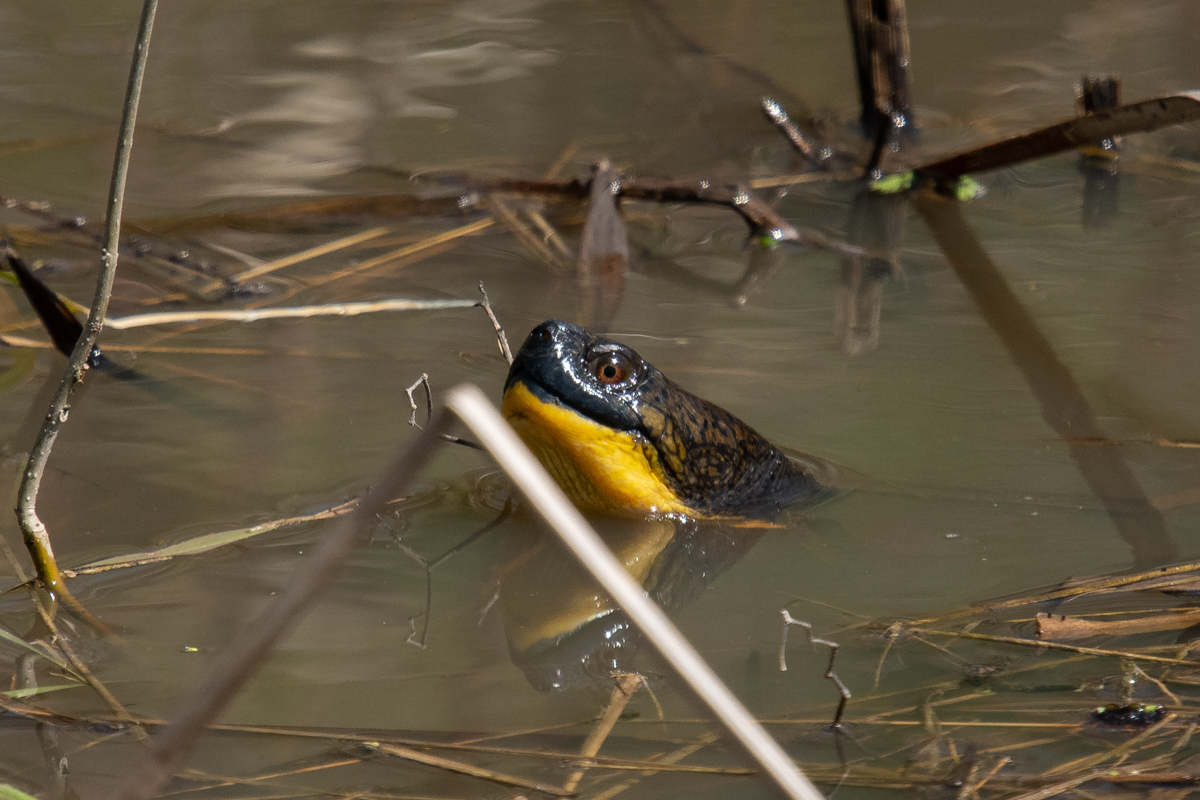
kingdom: Animalia
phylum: Chordata
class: Testudines
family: Emydidae
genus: Emys
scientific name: Emys blandingii
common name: Blanding's turtle
